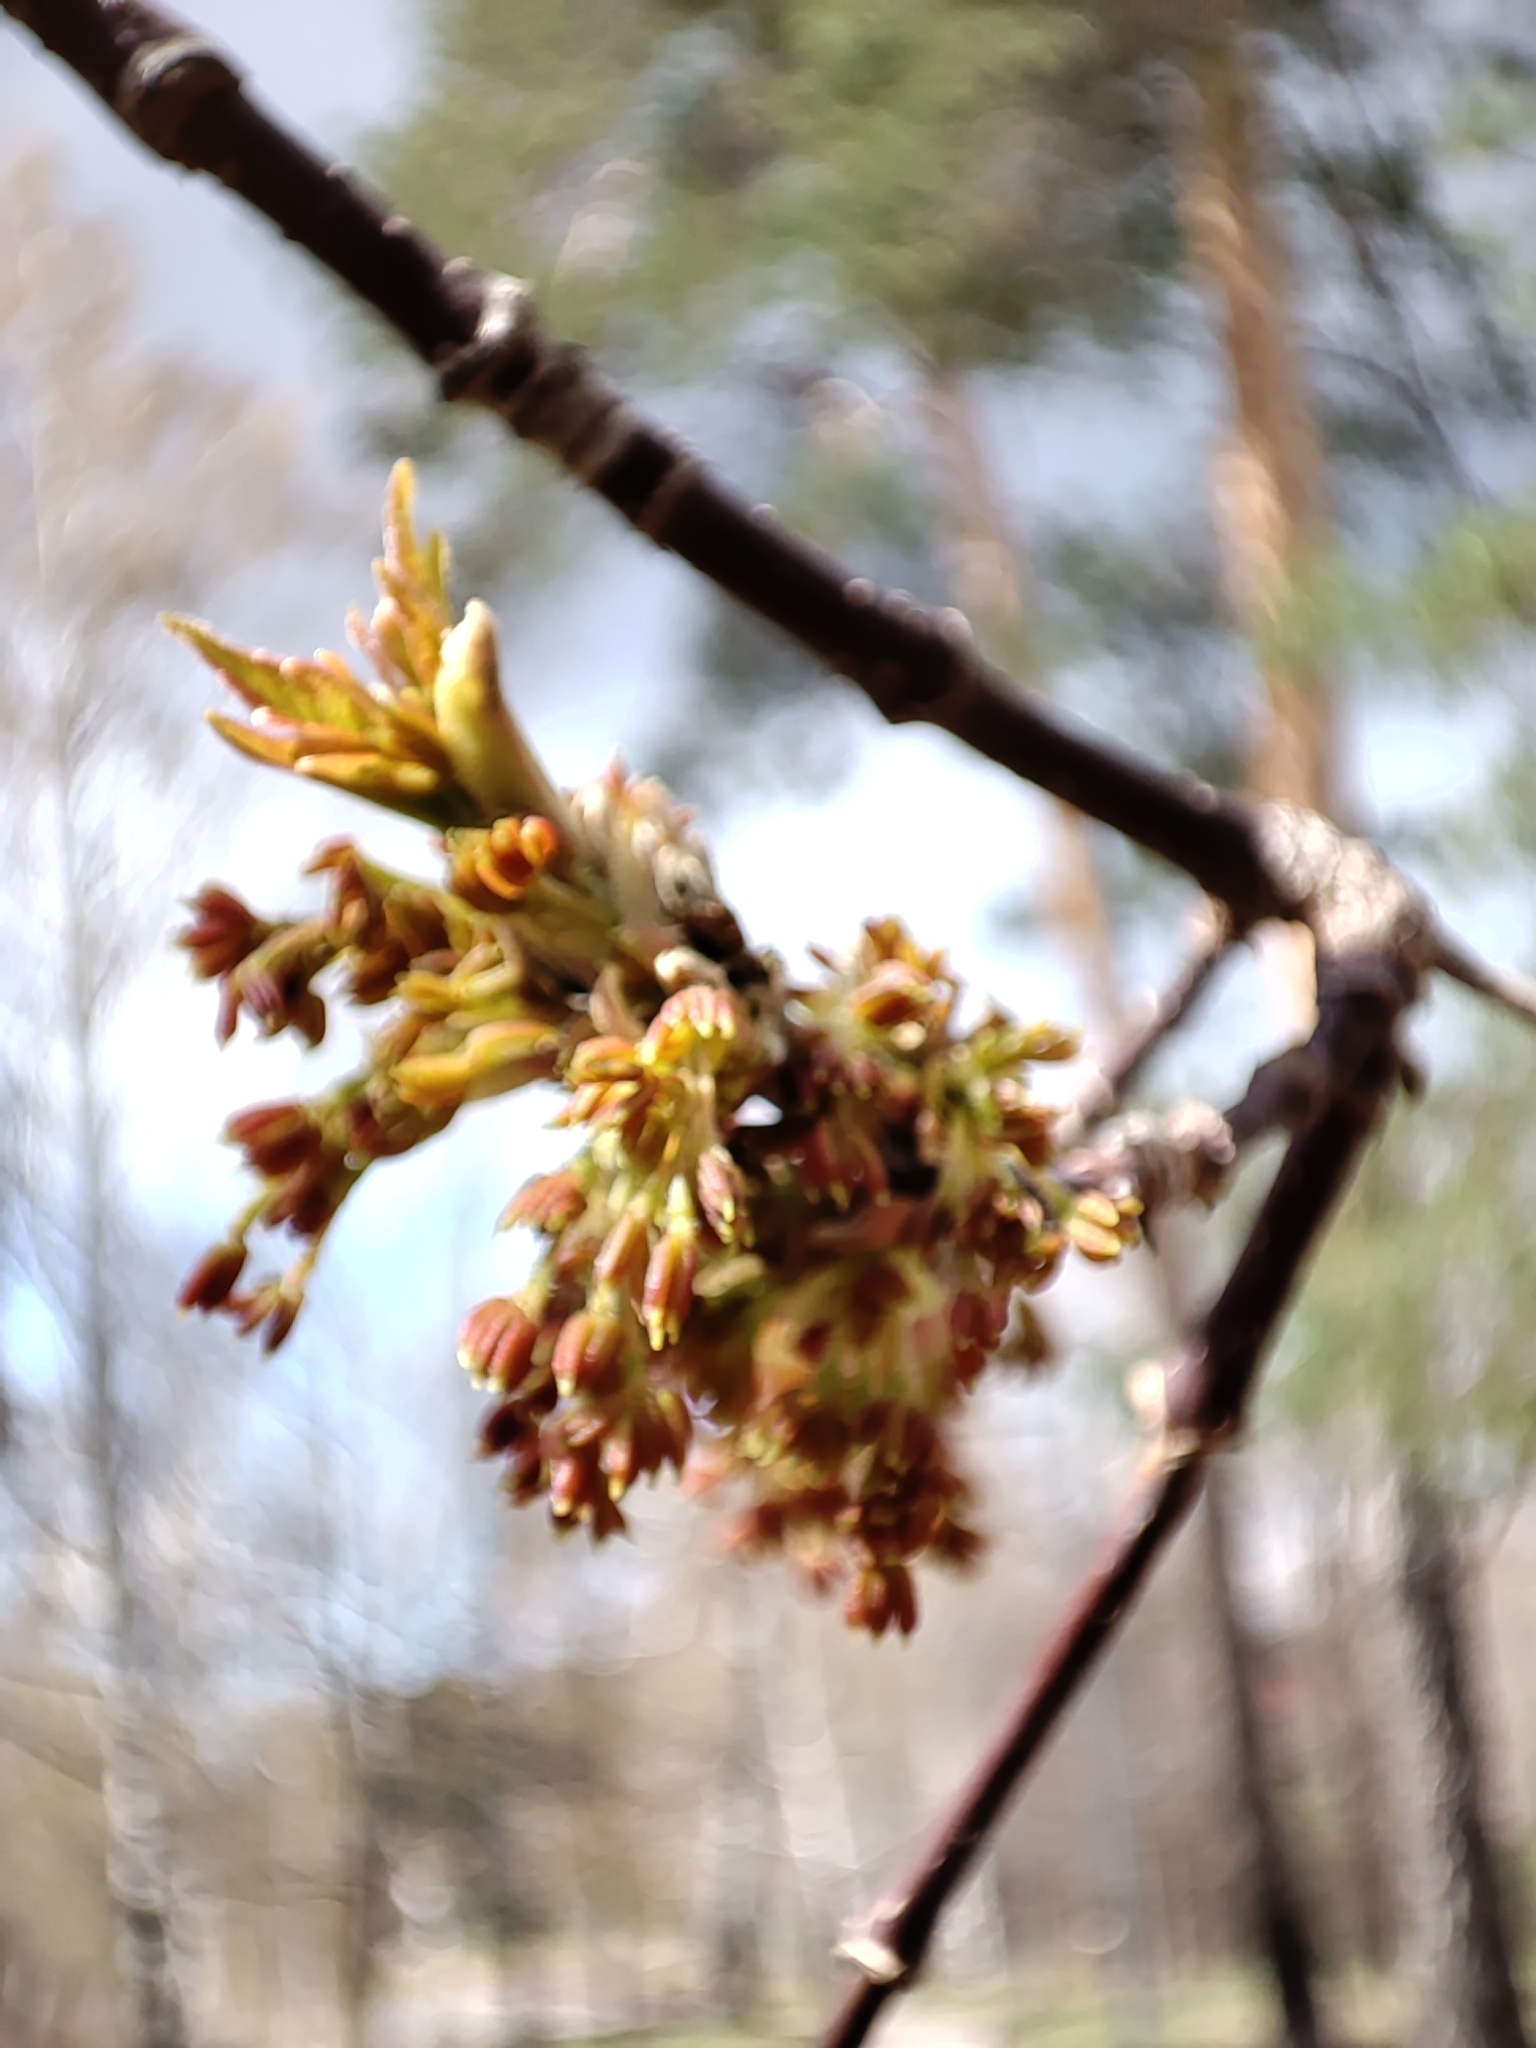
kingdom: Plantae
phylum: Tracheophyta
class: Magnoliopsida
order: Sapindales
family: Sapindaceae
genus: Acer
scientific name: Acer negundo
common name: Ashleaf maple
